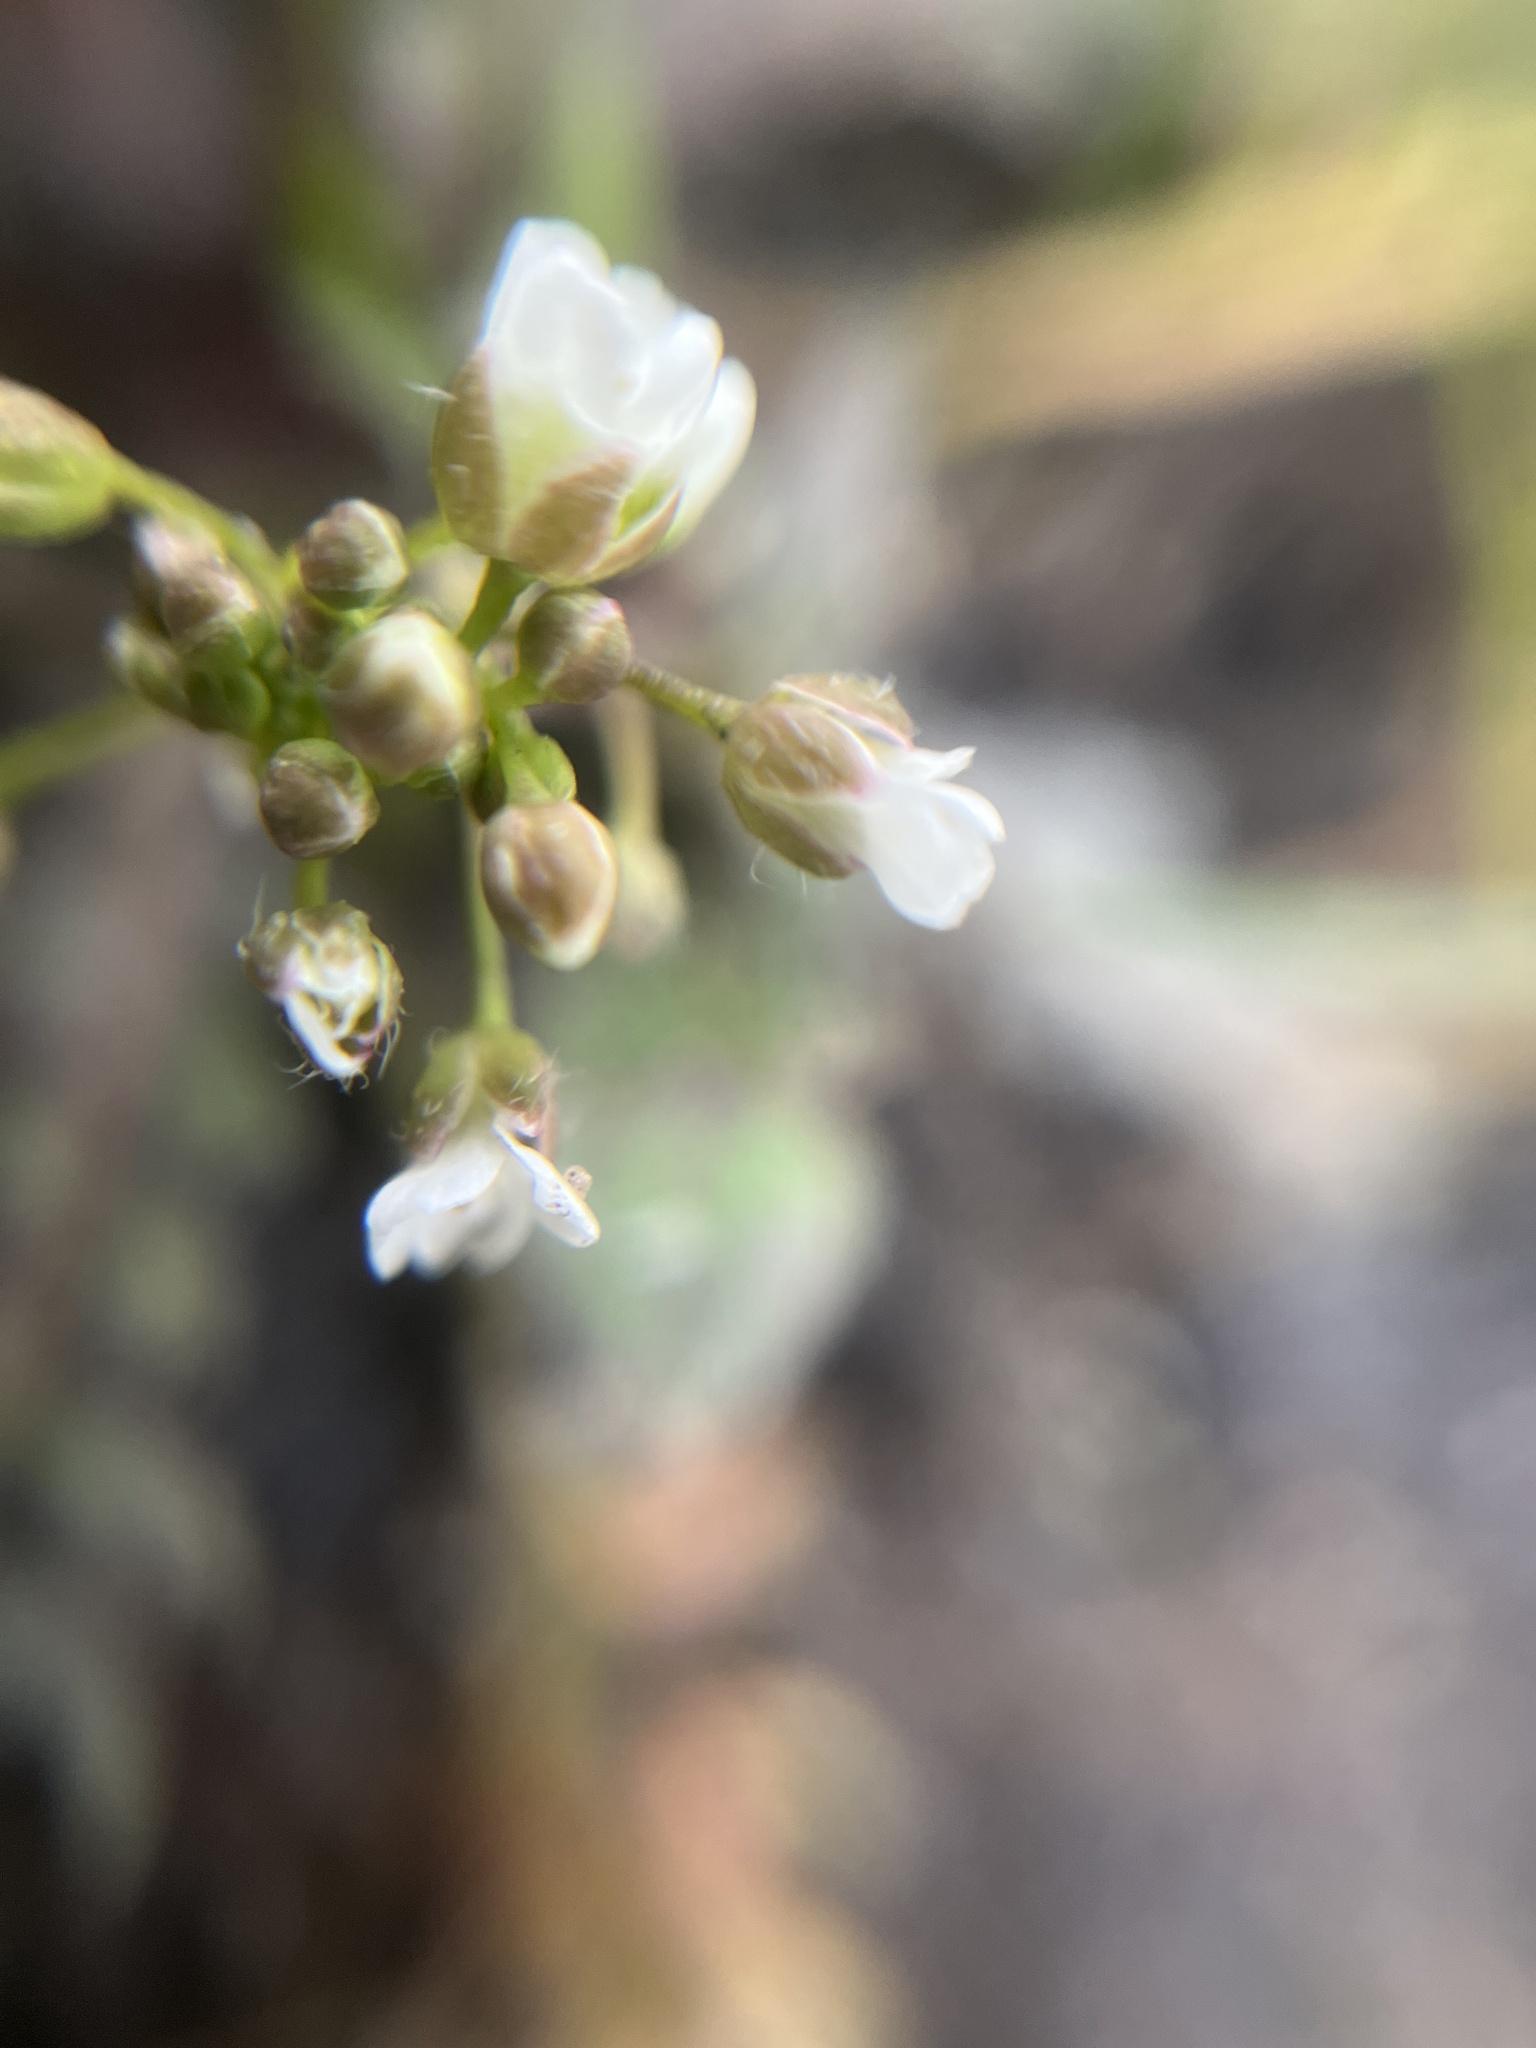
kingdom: Plantae
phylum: Tracheophyta
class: Magnoliopsida
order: Brassicales
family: Brassicaceae
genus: Capsella
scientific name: Capsella bursa-pastoris
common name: Shepherd's purse
